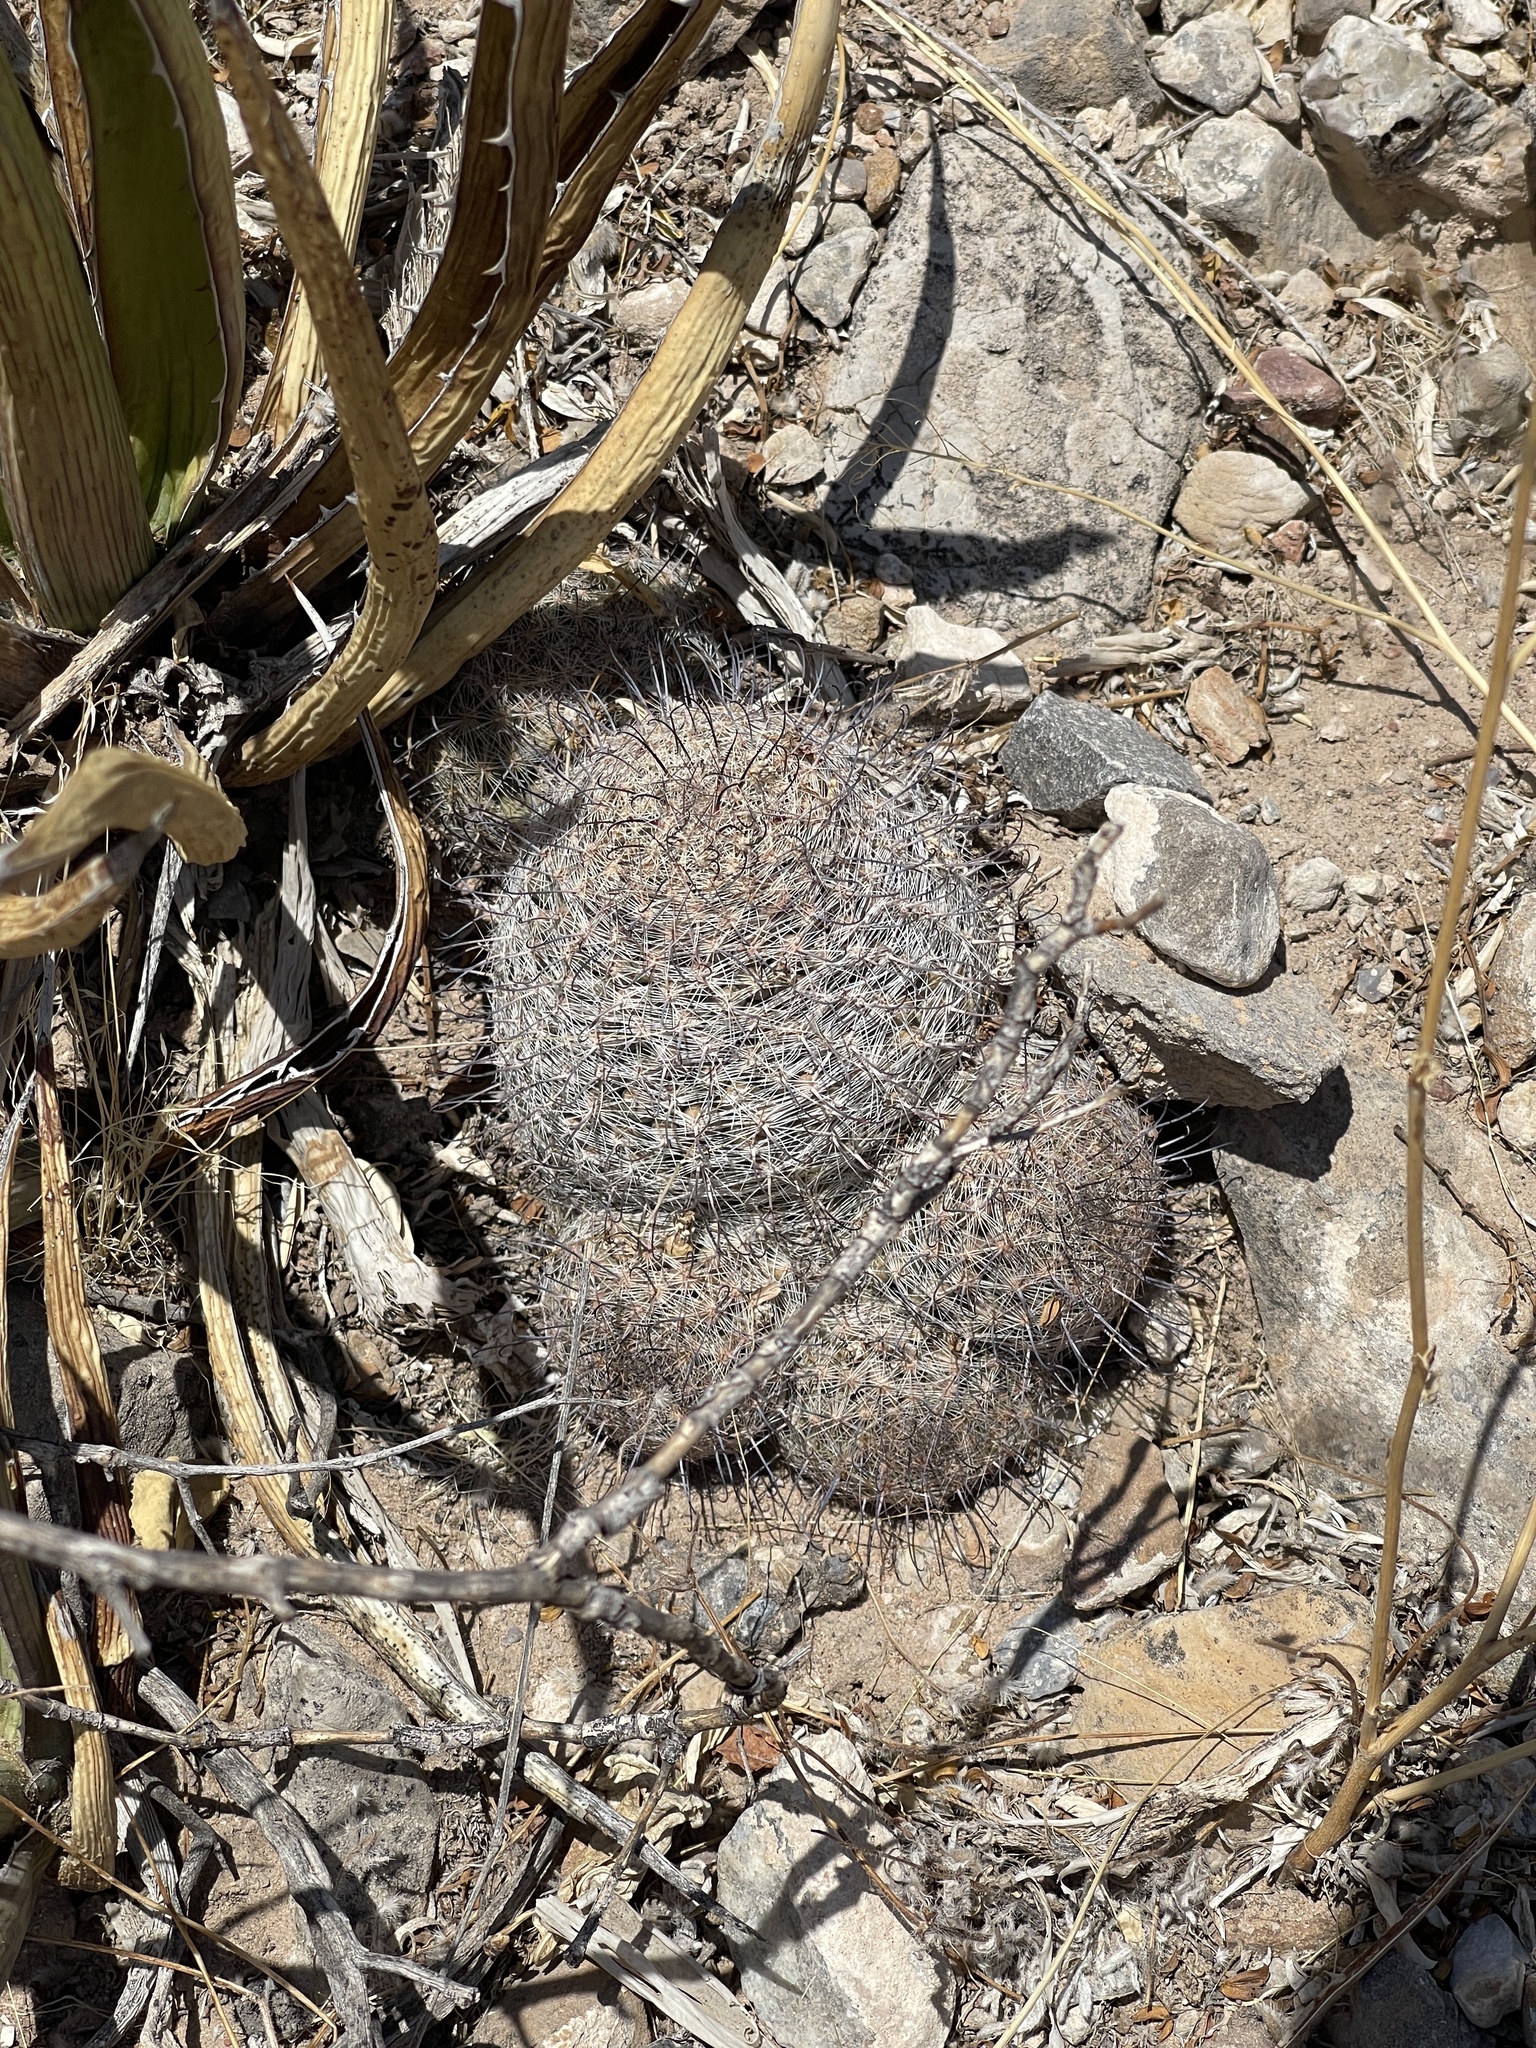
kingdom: Plantae
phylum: Tracheophyta
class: Magnoliopsida
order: Caryophyllales
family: Cactaceae
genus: Cochemiea
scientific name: Cochemiea grahamii
